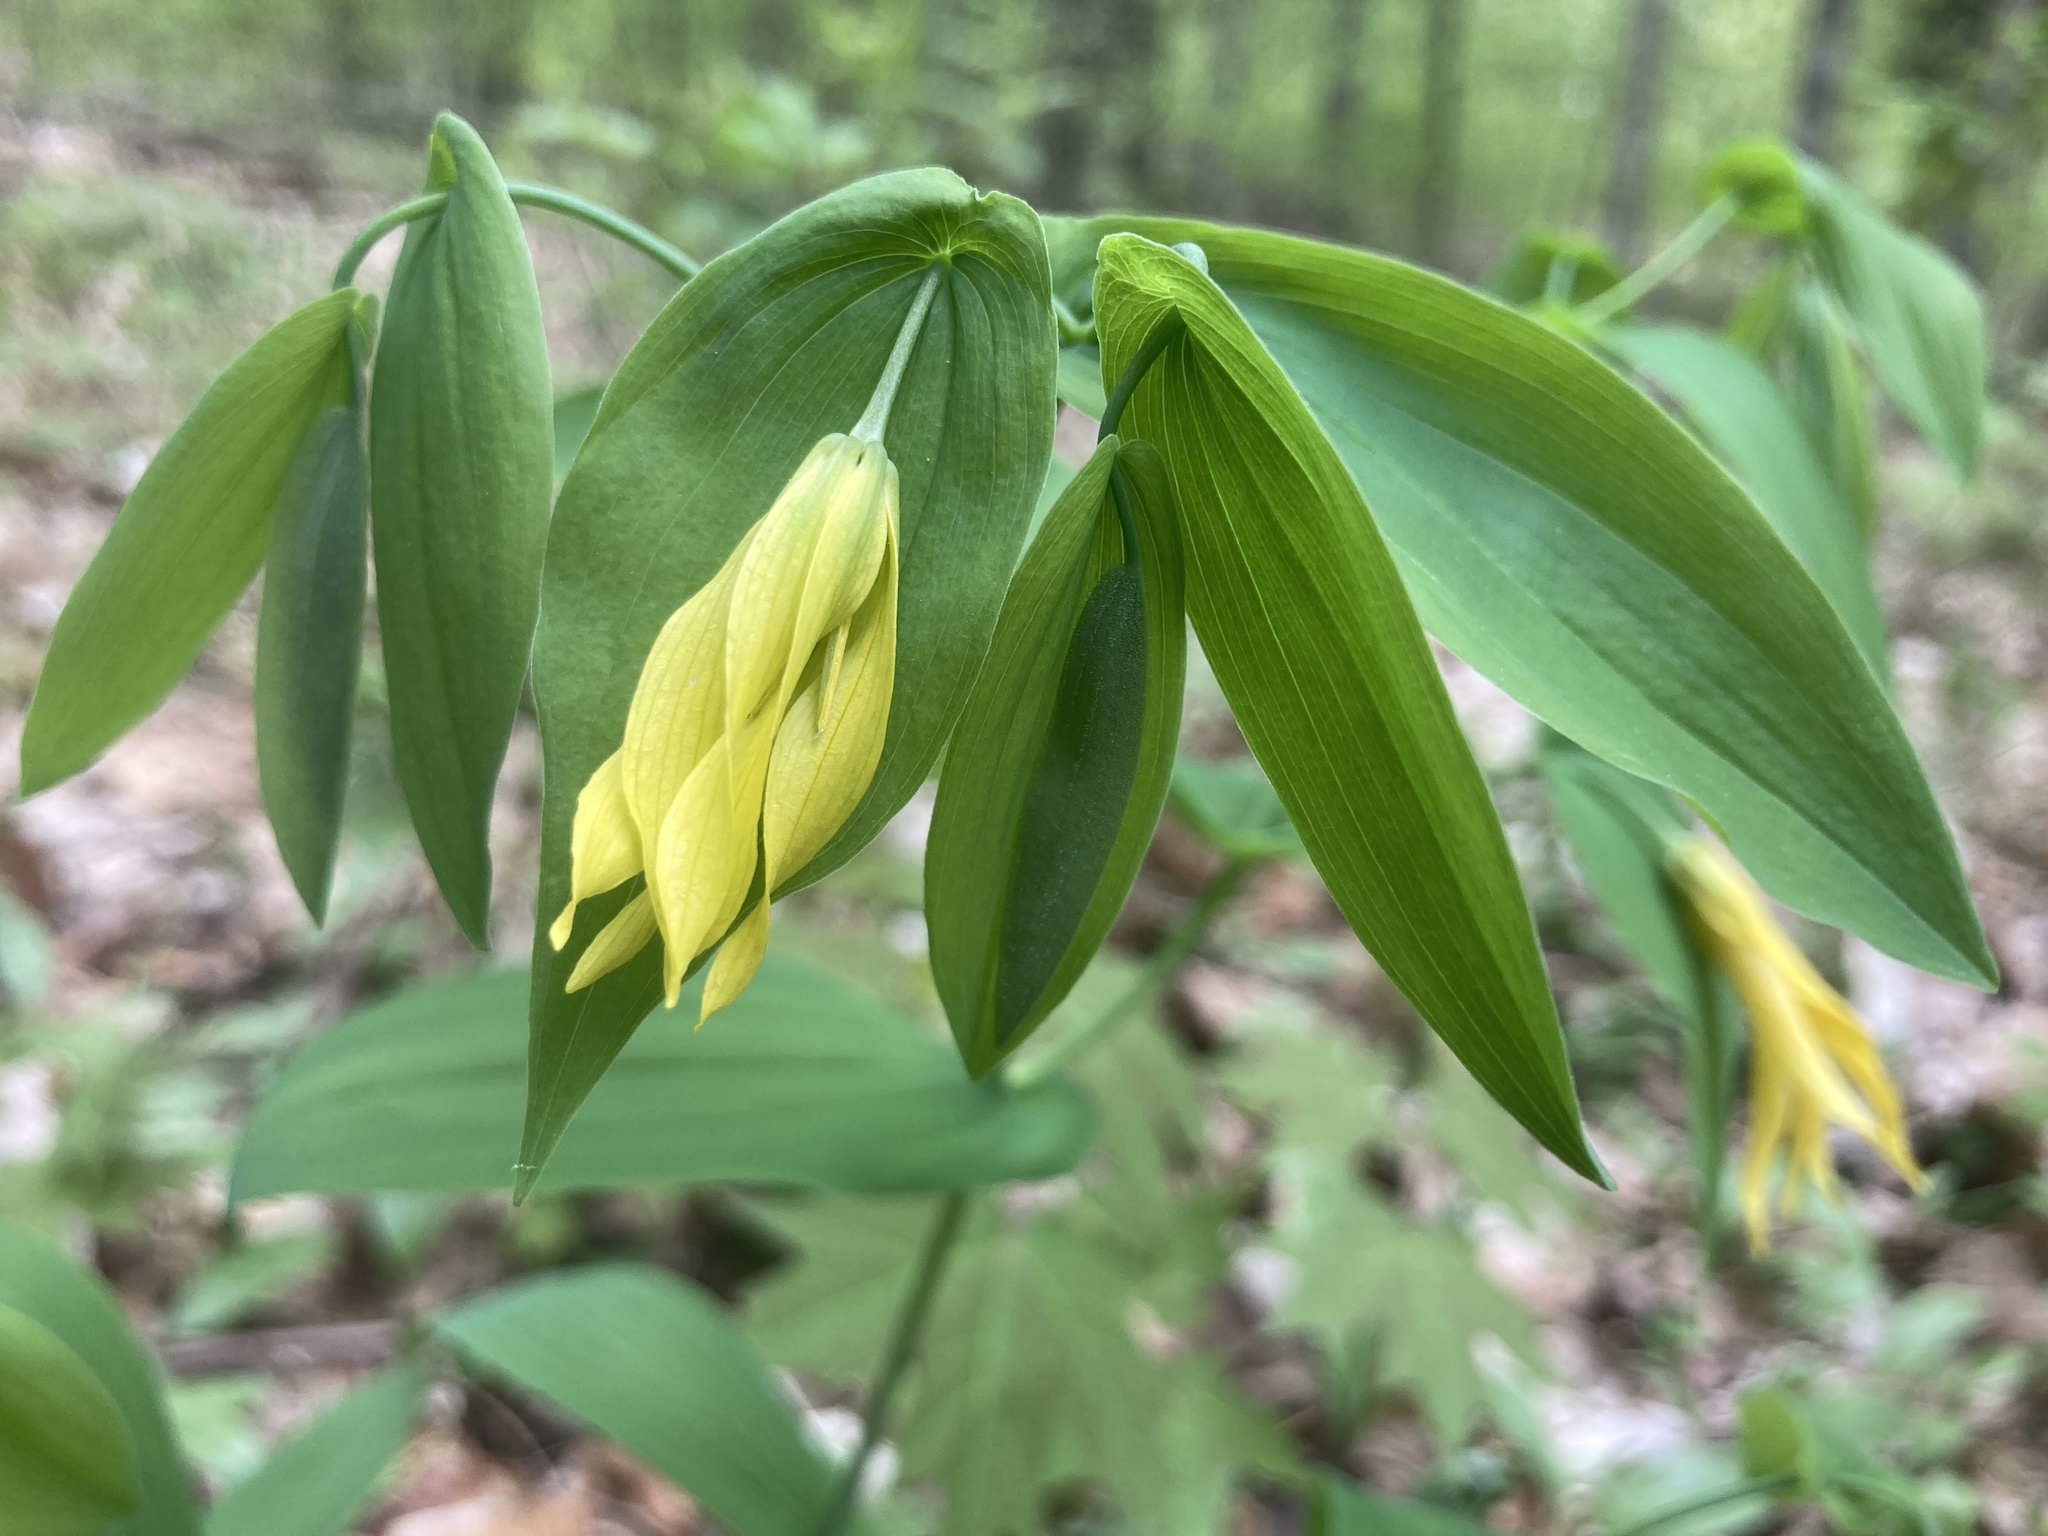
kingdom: Plantae
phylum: Tracheophyta
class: Liliopsida
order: Liliales
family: Colchicaceae
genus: Uvularia
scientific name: Uvularia grandiflora
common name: Bellwort
